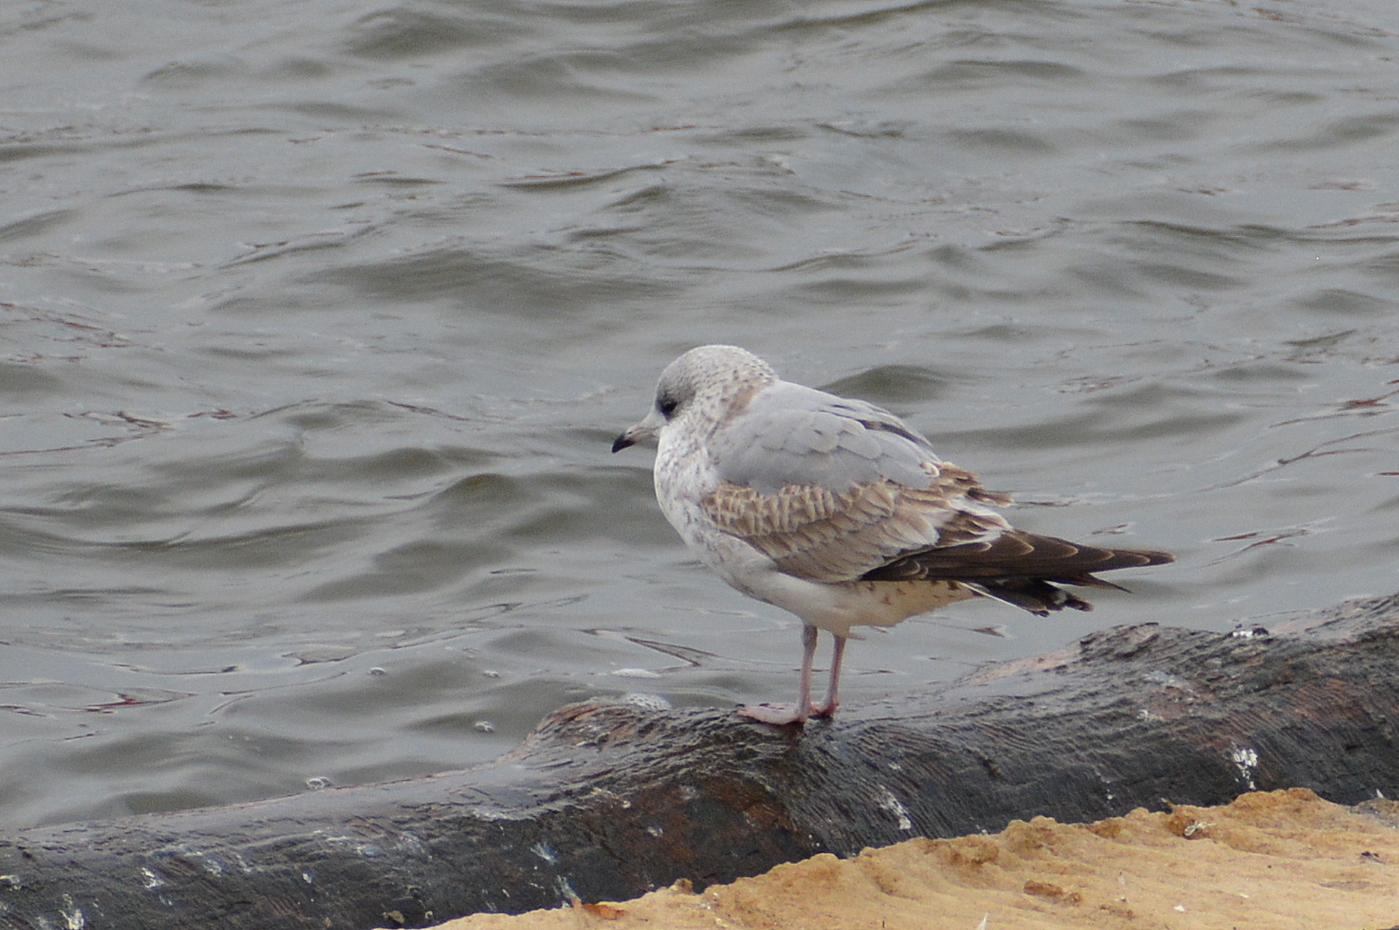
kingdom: Animalia
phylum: Chordata
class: Aves
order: Charadriiformes
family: Laridae
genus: Larus
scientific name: Larus canus
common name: Mew gull
